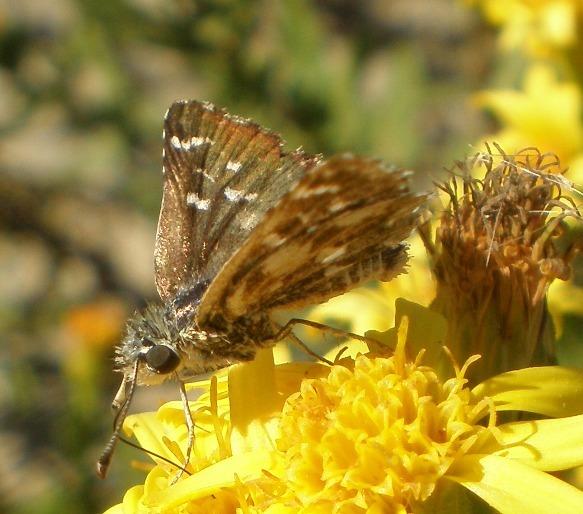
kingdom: Animalia
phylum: Arthropoda
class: Insecta
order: Lepidoptera
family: Hesperiidae
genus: Spialia
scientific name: Spialia sertorius
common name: Red underwing skipper
